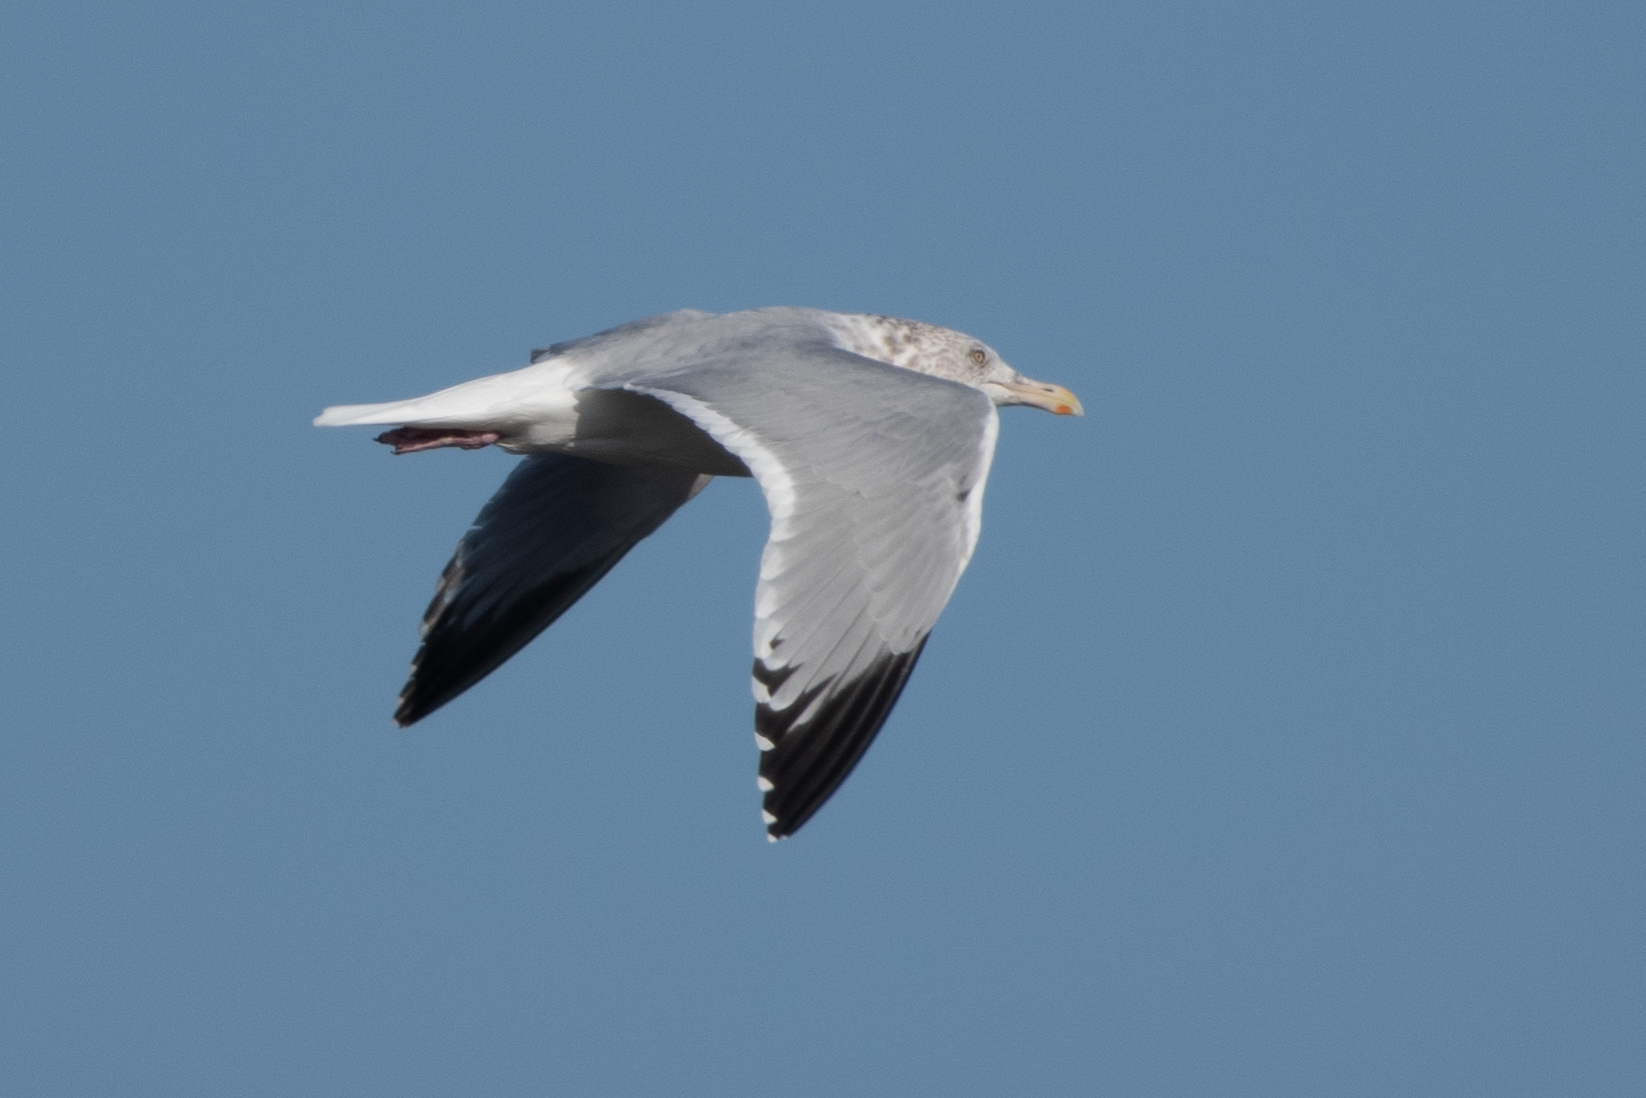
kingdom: Animalia
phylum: Chordata
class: Aves
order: Charadriiformes
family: Laridae
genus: Larus
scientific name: Larus argentatus
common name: Herring gull
